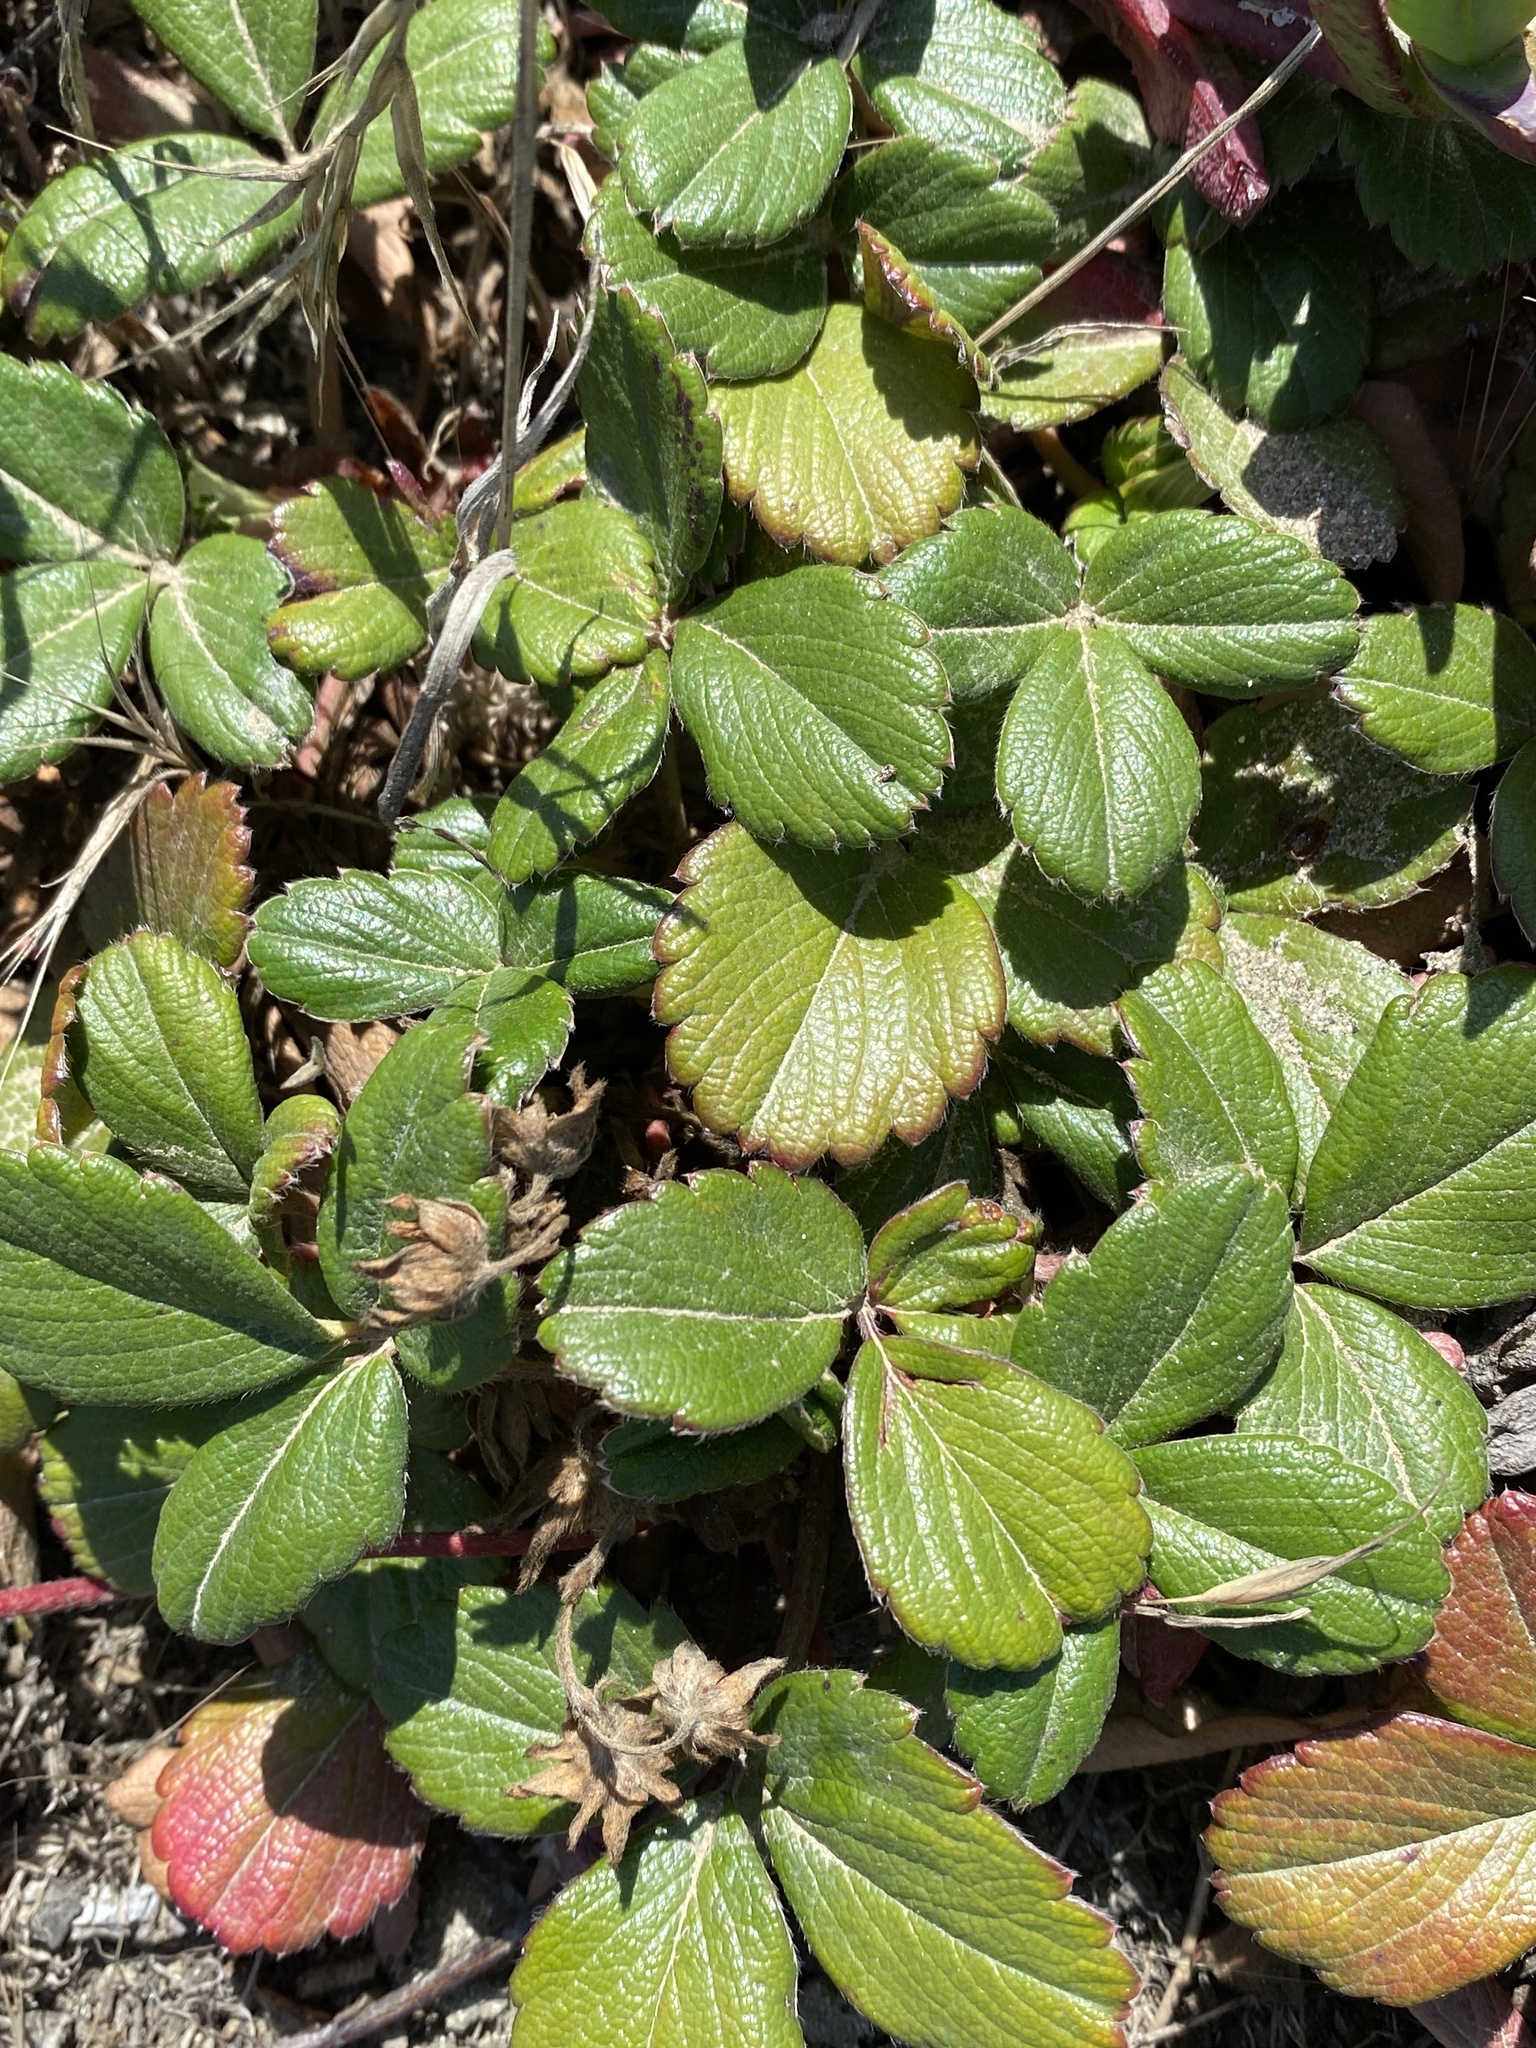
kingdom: Plantae
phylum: Tracheophyta
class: Magnoliopsida
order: Rosales
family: Rosaceae
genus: Fragaria
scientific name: Fragaria chiloensis
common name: Beach strawberry
